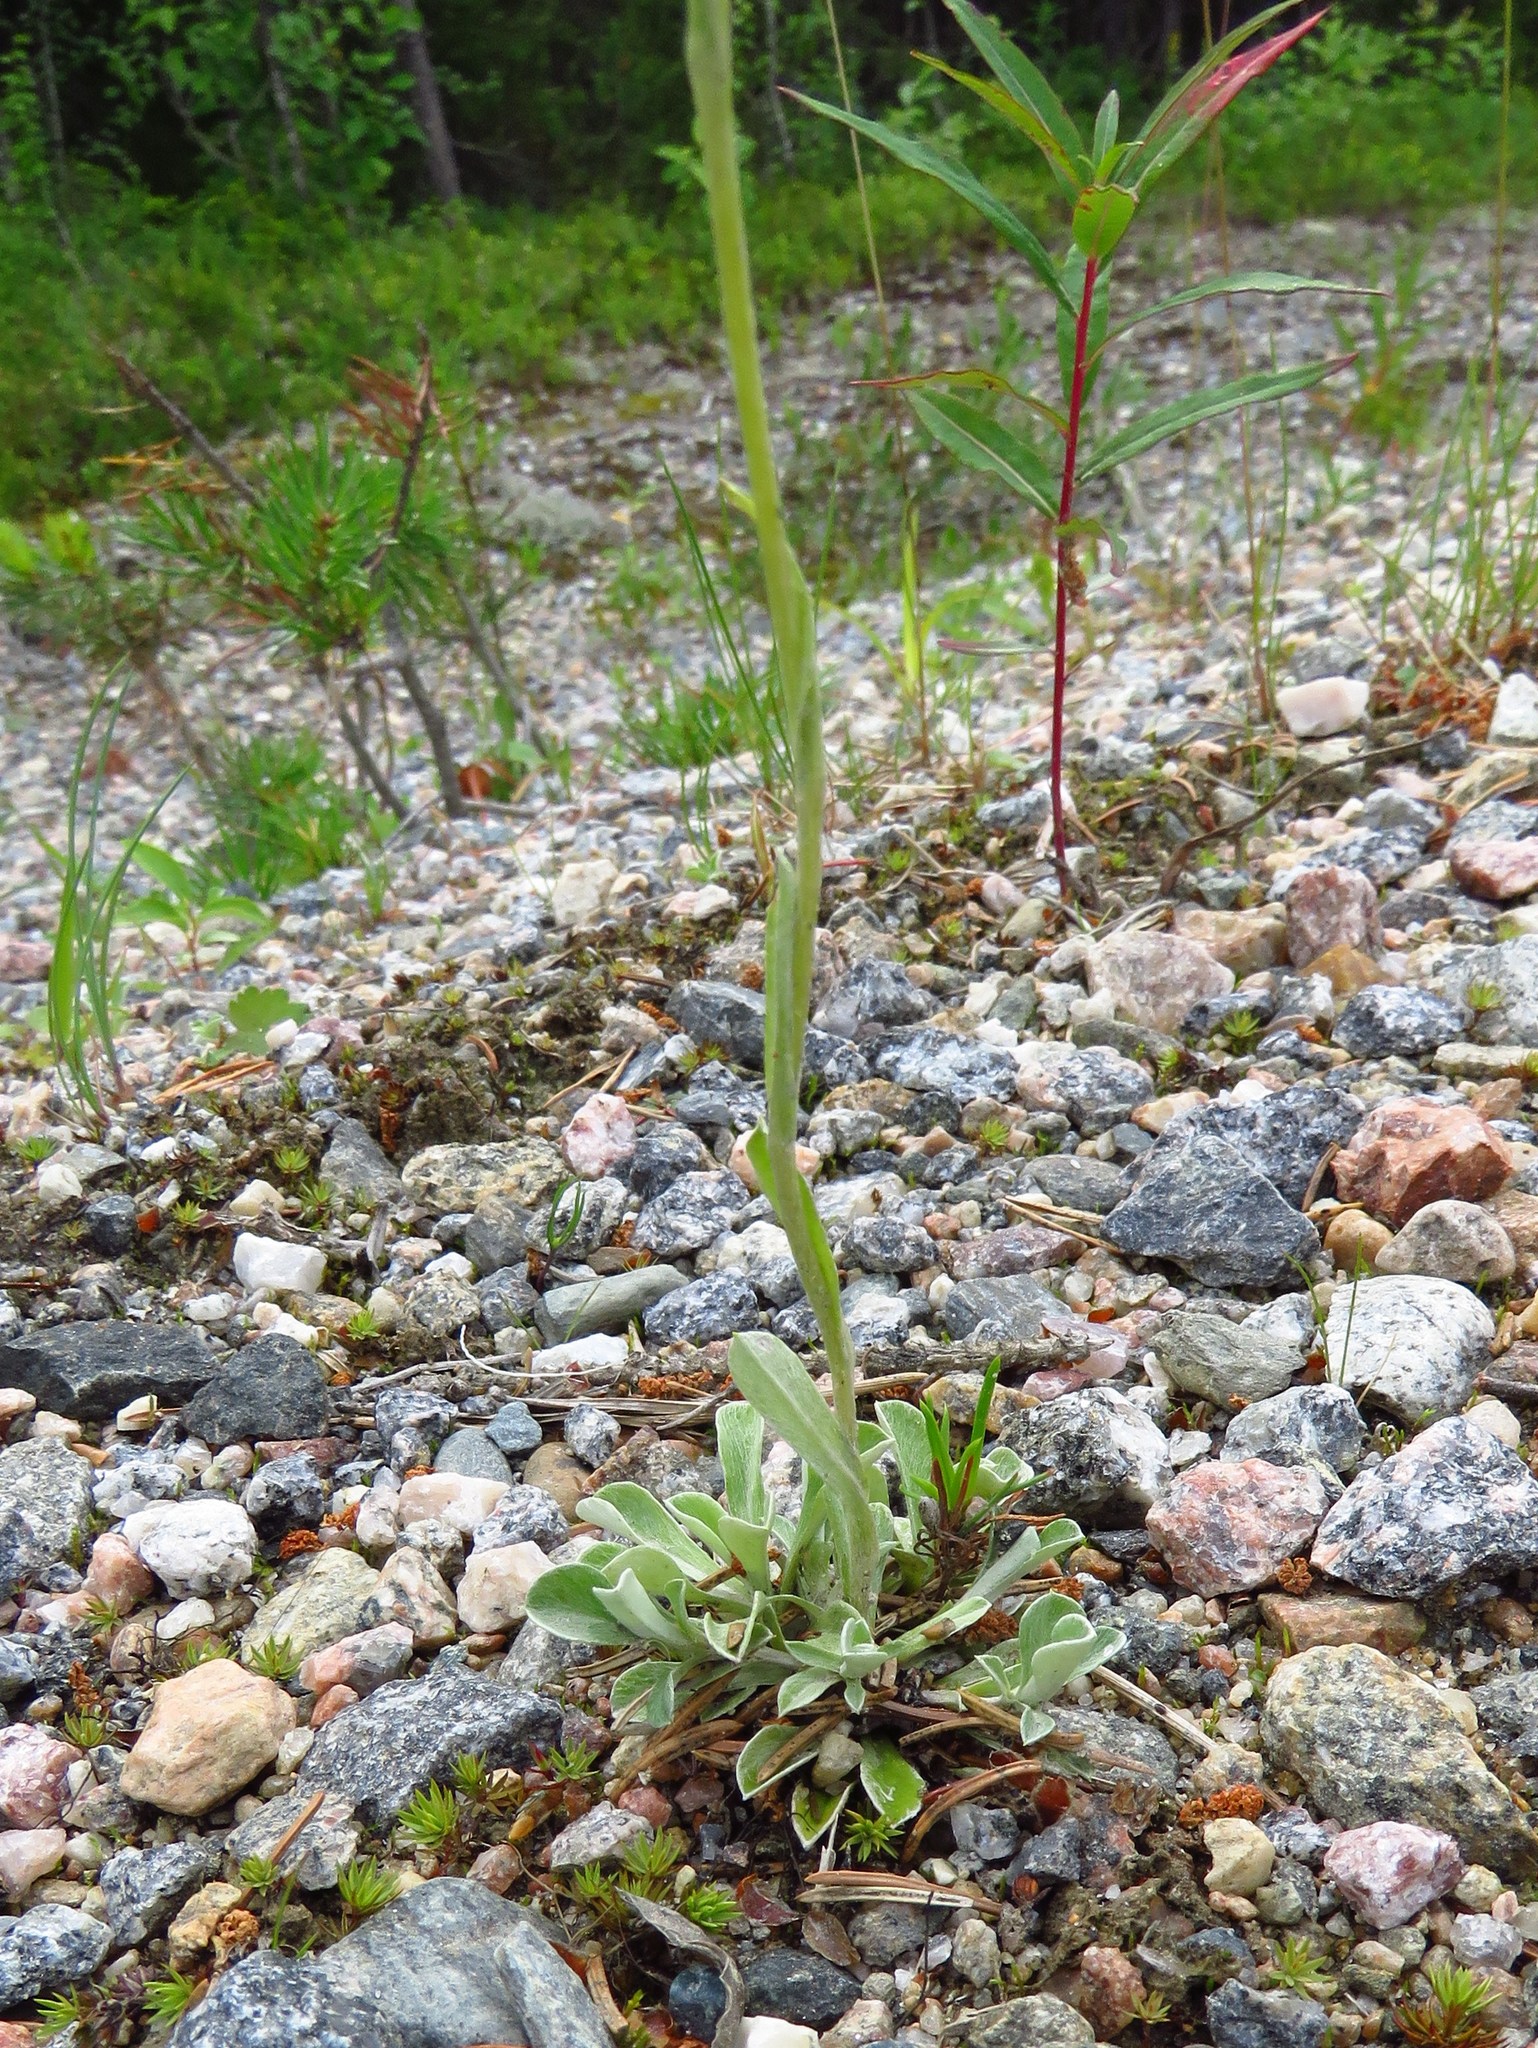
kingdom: Plantae
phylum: Tracheophyta
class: Magnoliopsida
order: Asterales
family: Asteraceae
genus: Antennaria
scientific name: Antennaria dioica
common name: Mountain everlasting
